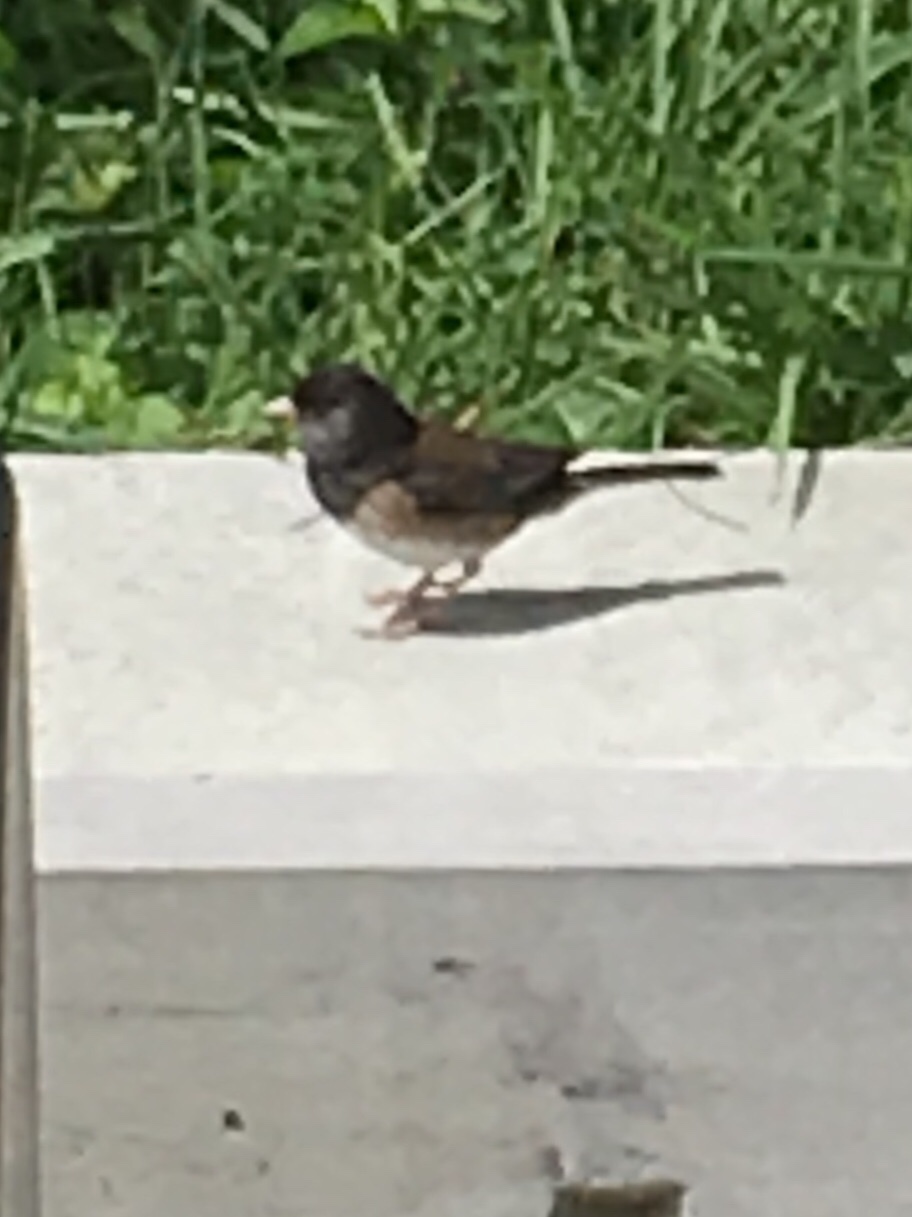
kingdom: Animalia
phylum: Chordata
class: Aves
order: Passeriformes
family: Passerellidae
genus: Junco
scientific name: Junco hyemalis
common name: Dark-eyed junco
